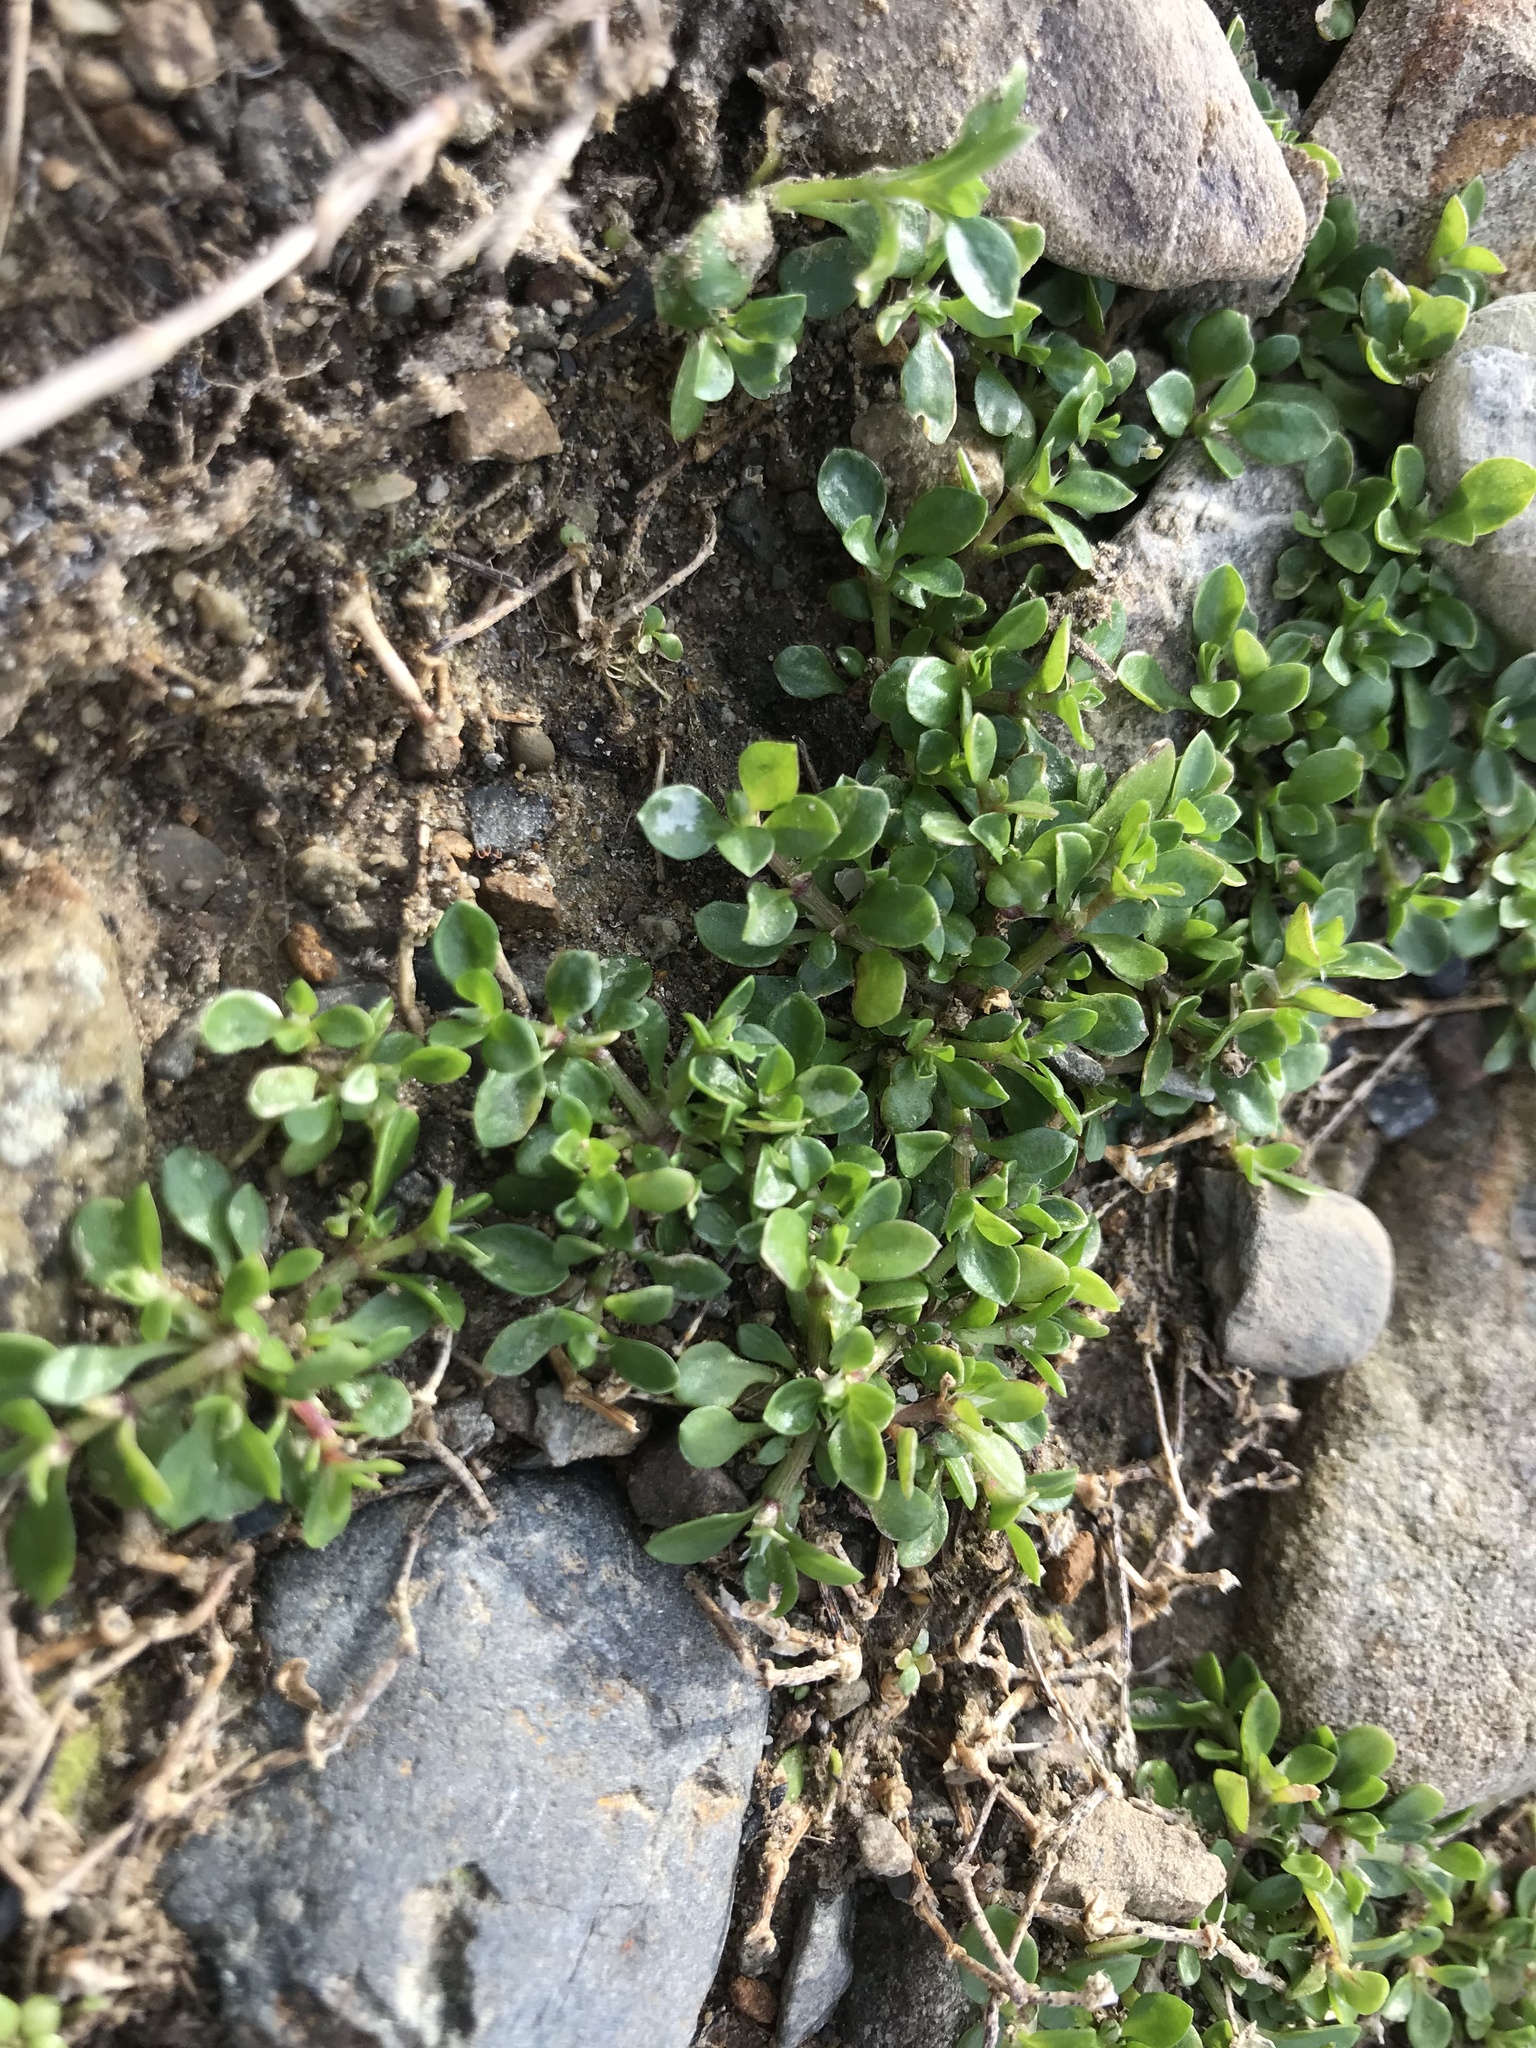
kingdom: Plantae
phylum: Tracheophyta
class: Magnoliopsida
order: Caryophyllales
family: Caryophyllaceae
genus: Polycarpon
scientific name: Polycarpon tetraphyllum
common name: Four-leaved all-seed
